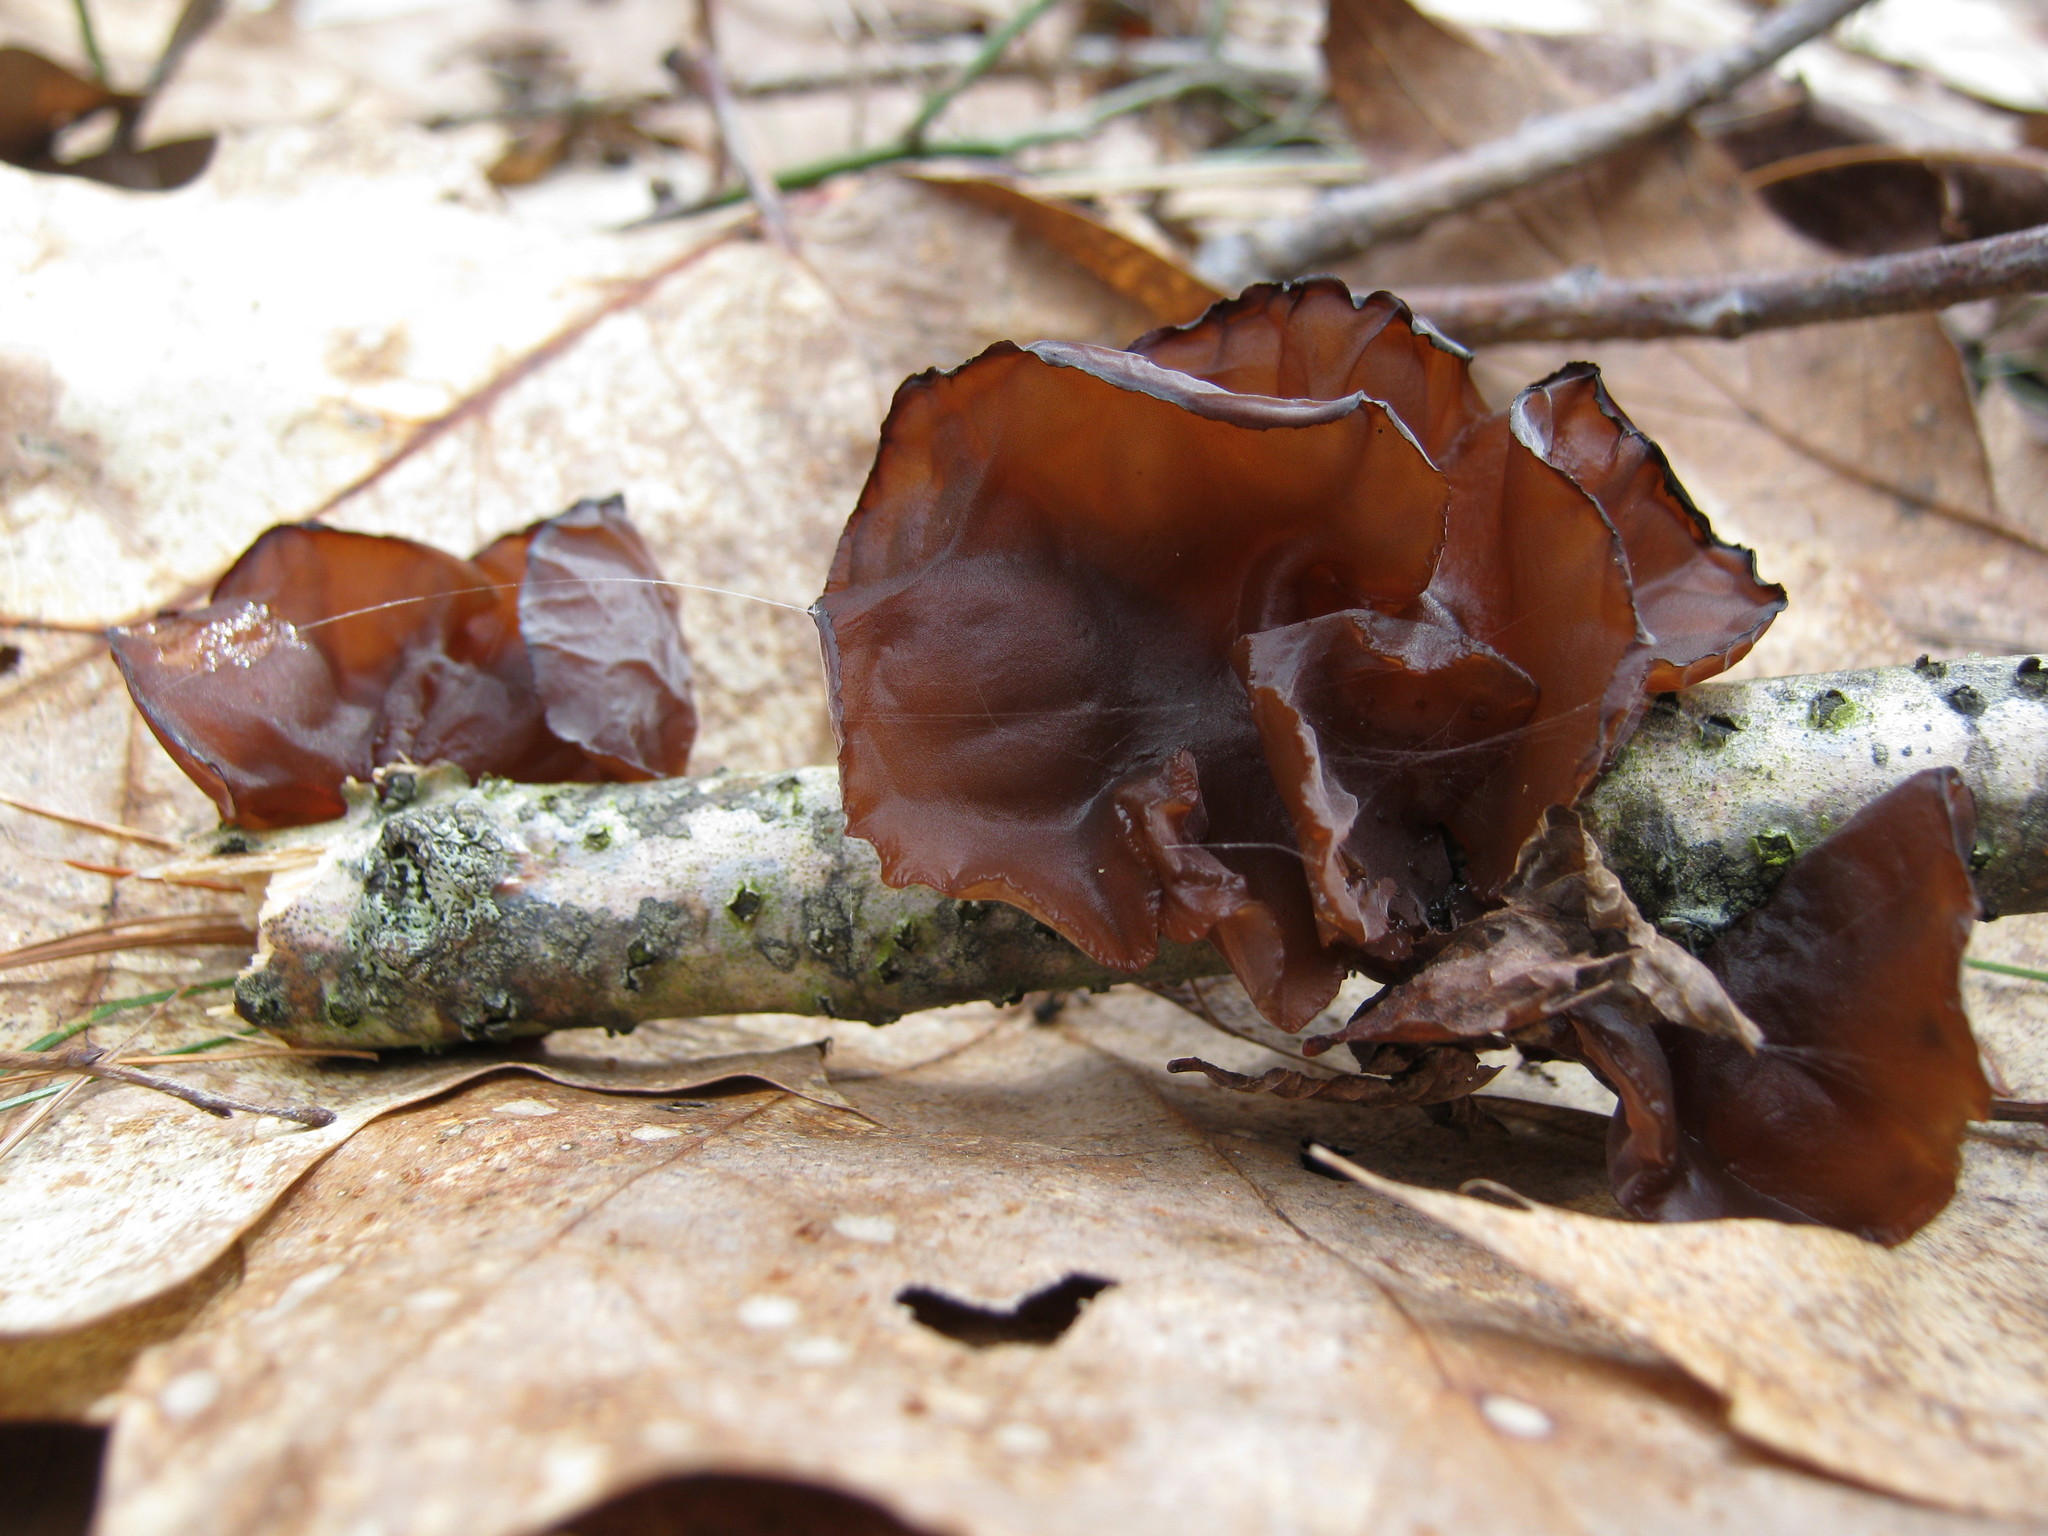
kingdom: Fungi
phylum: Basidiomycota
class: Agaricomycetes
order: Auriculariales
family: Auriculariaceae
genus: Exidia
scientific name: Exidia
